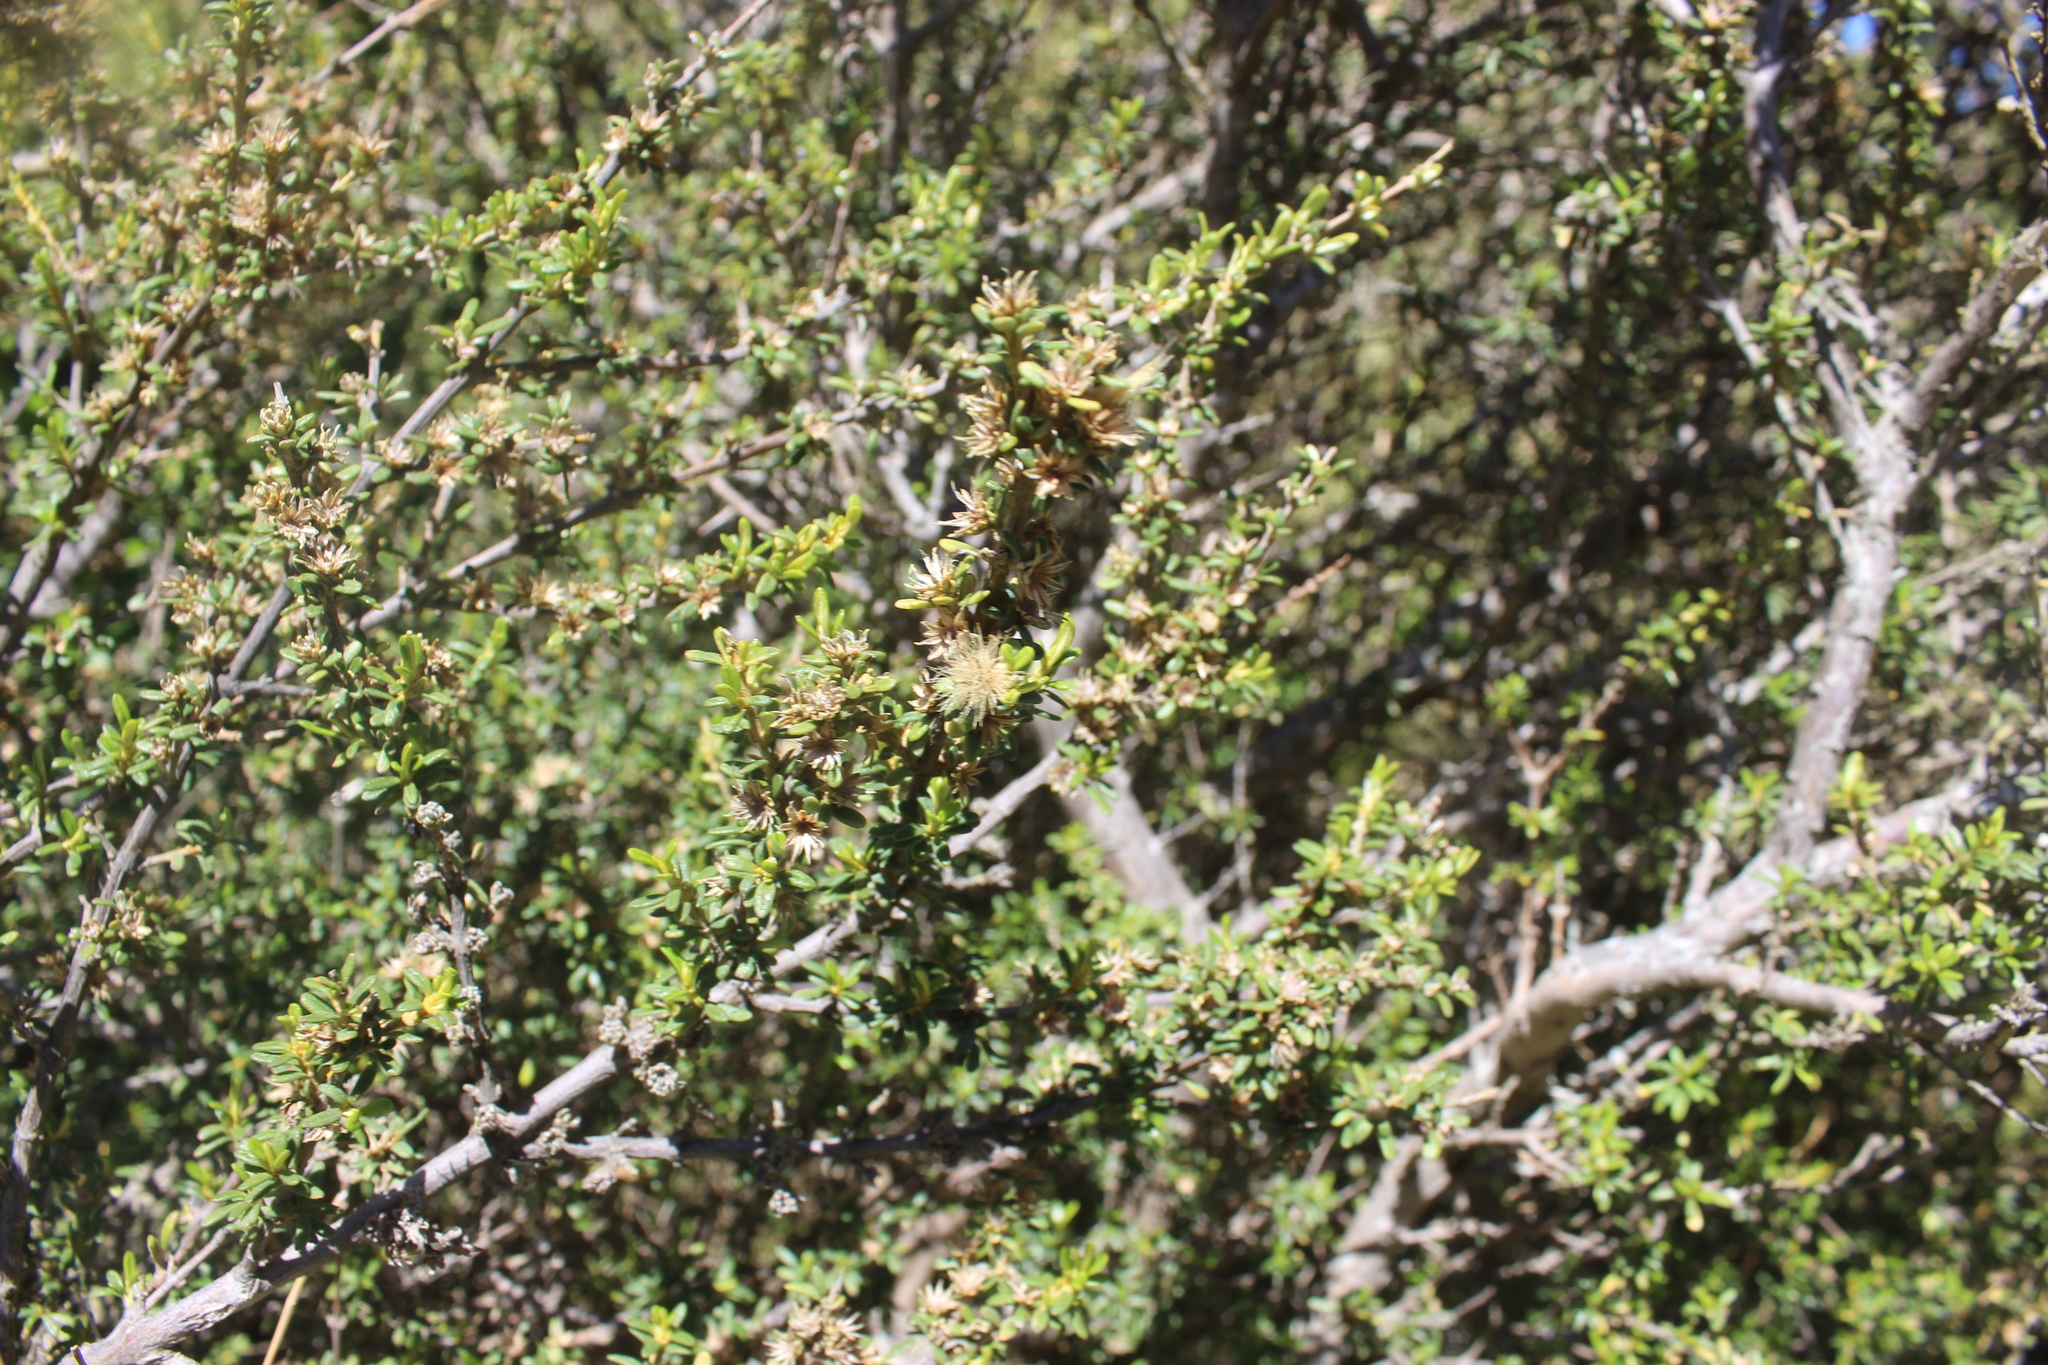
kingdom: Plantae
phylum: Tracheophyta
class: Magnoliopsida
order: Asterales
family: Asteraceae
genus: Olearia
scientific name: Olearia solandri
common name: Coastal daisybush
